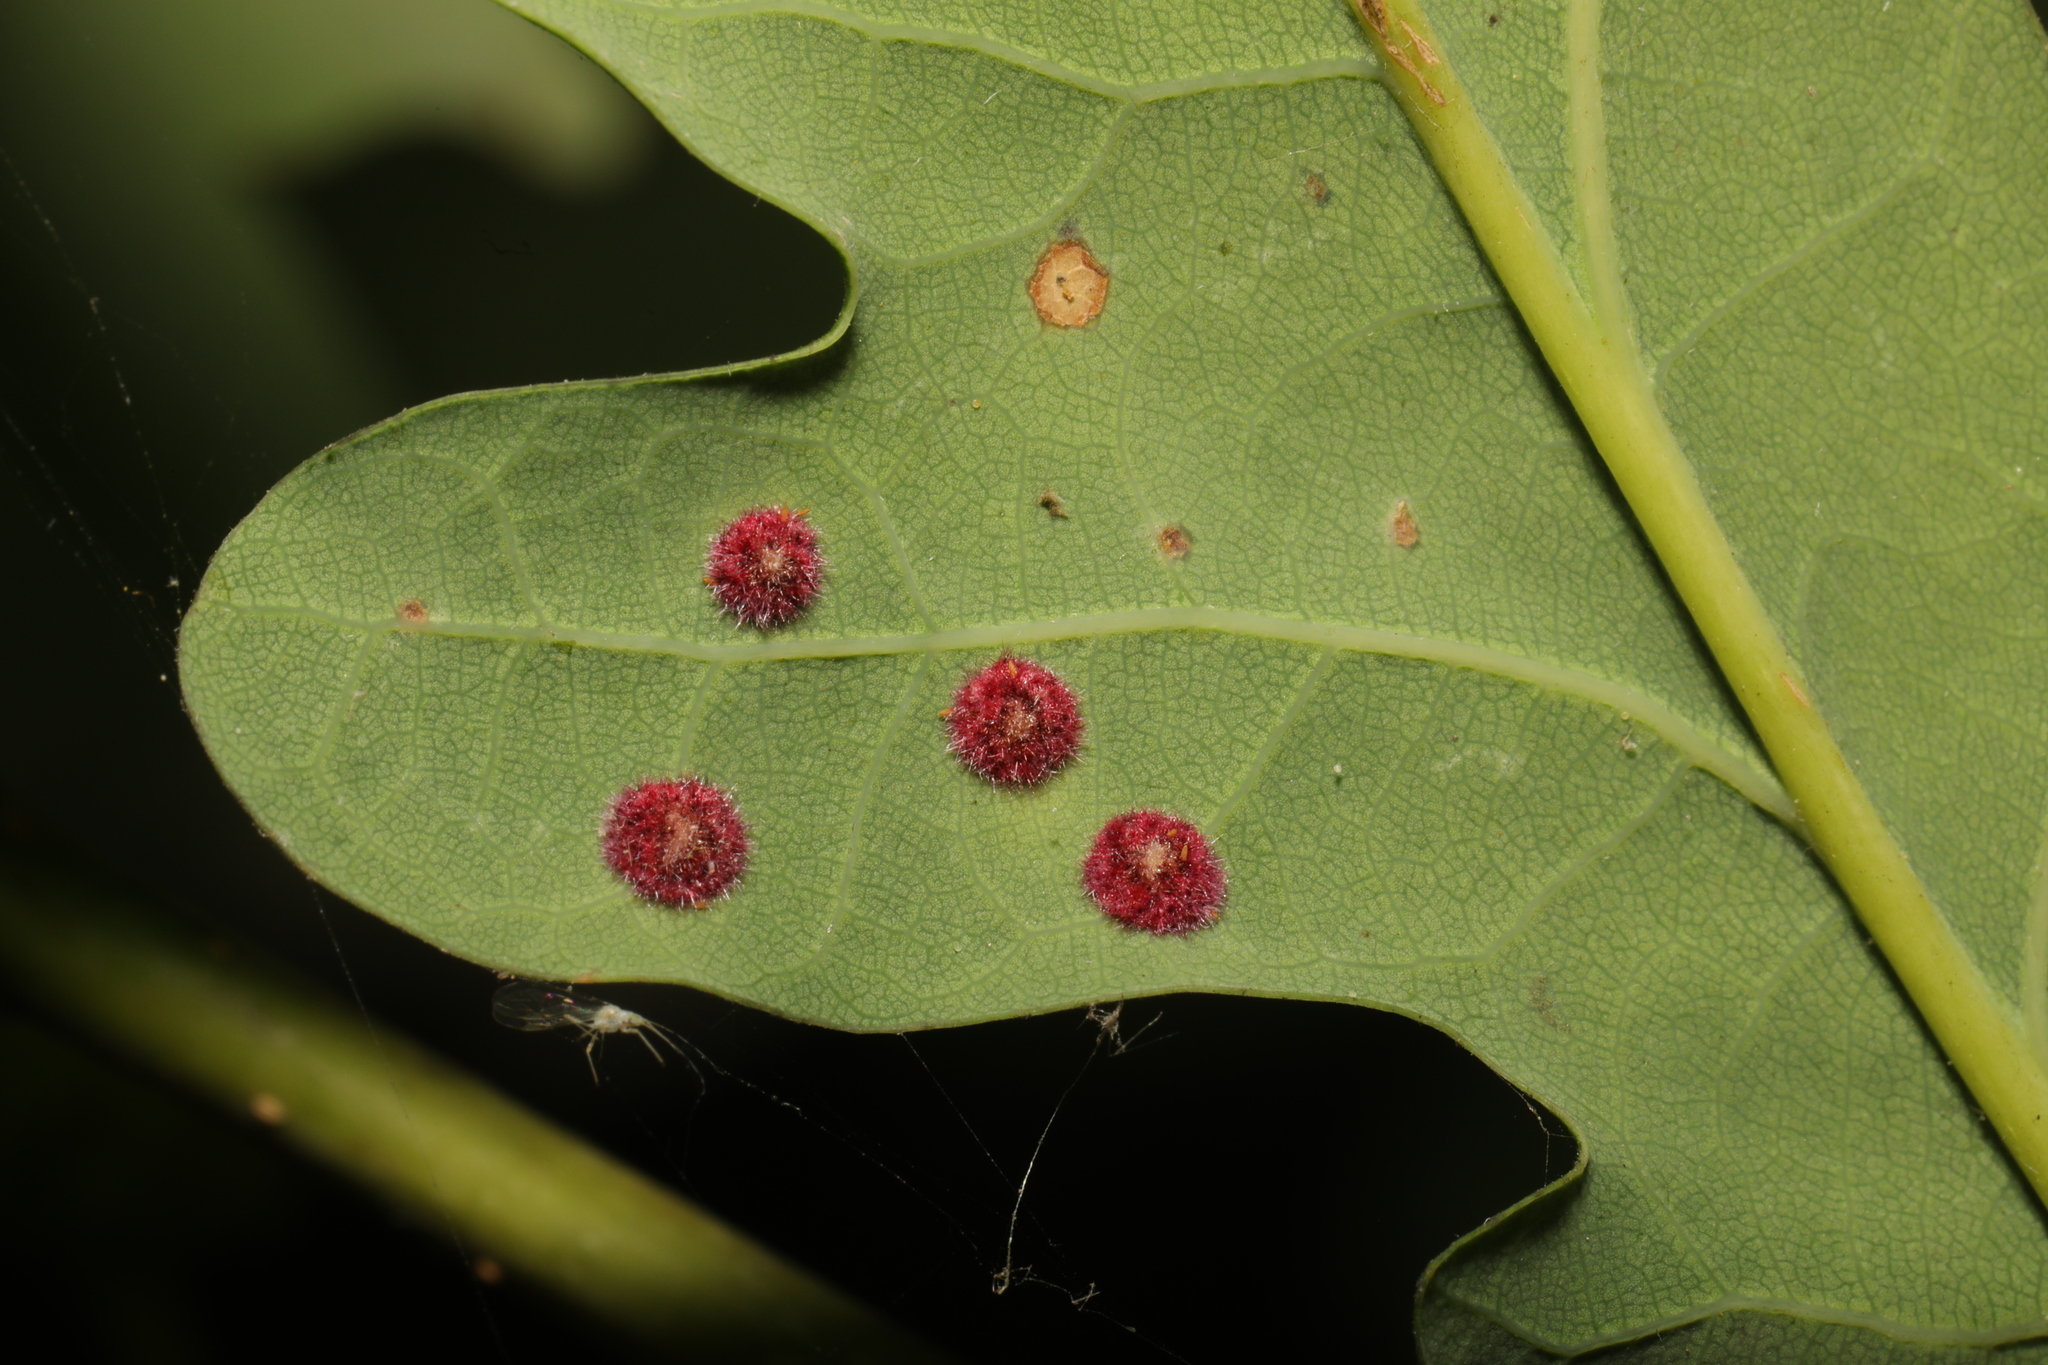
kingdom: Animalia
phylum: Arthropoda
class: Insecta
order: Hymenoptera
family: Cynipidae
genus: Neuroterus
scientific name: Neuroterus quercusbaccarum
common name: Common spangle gall
